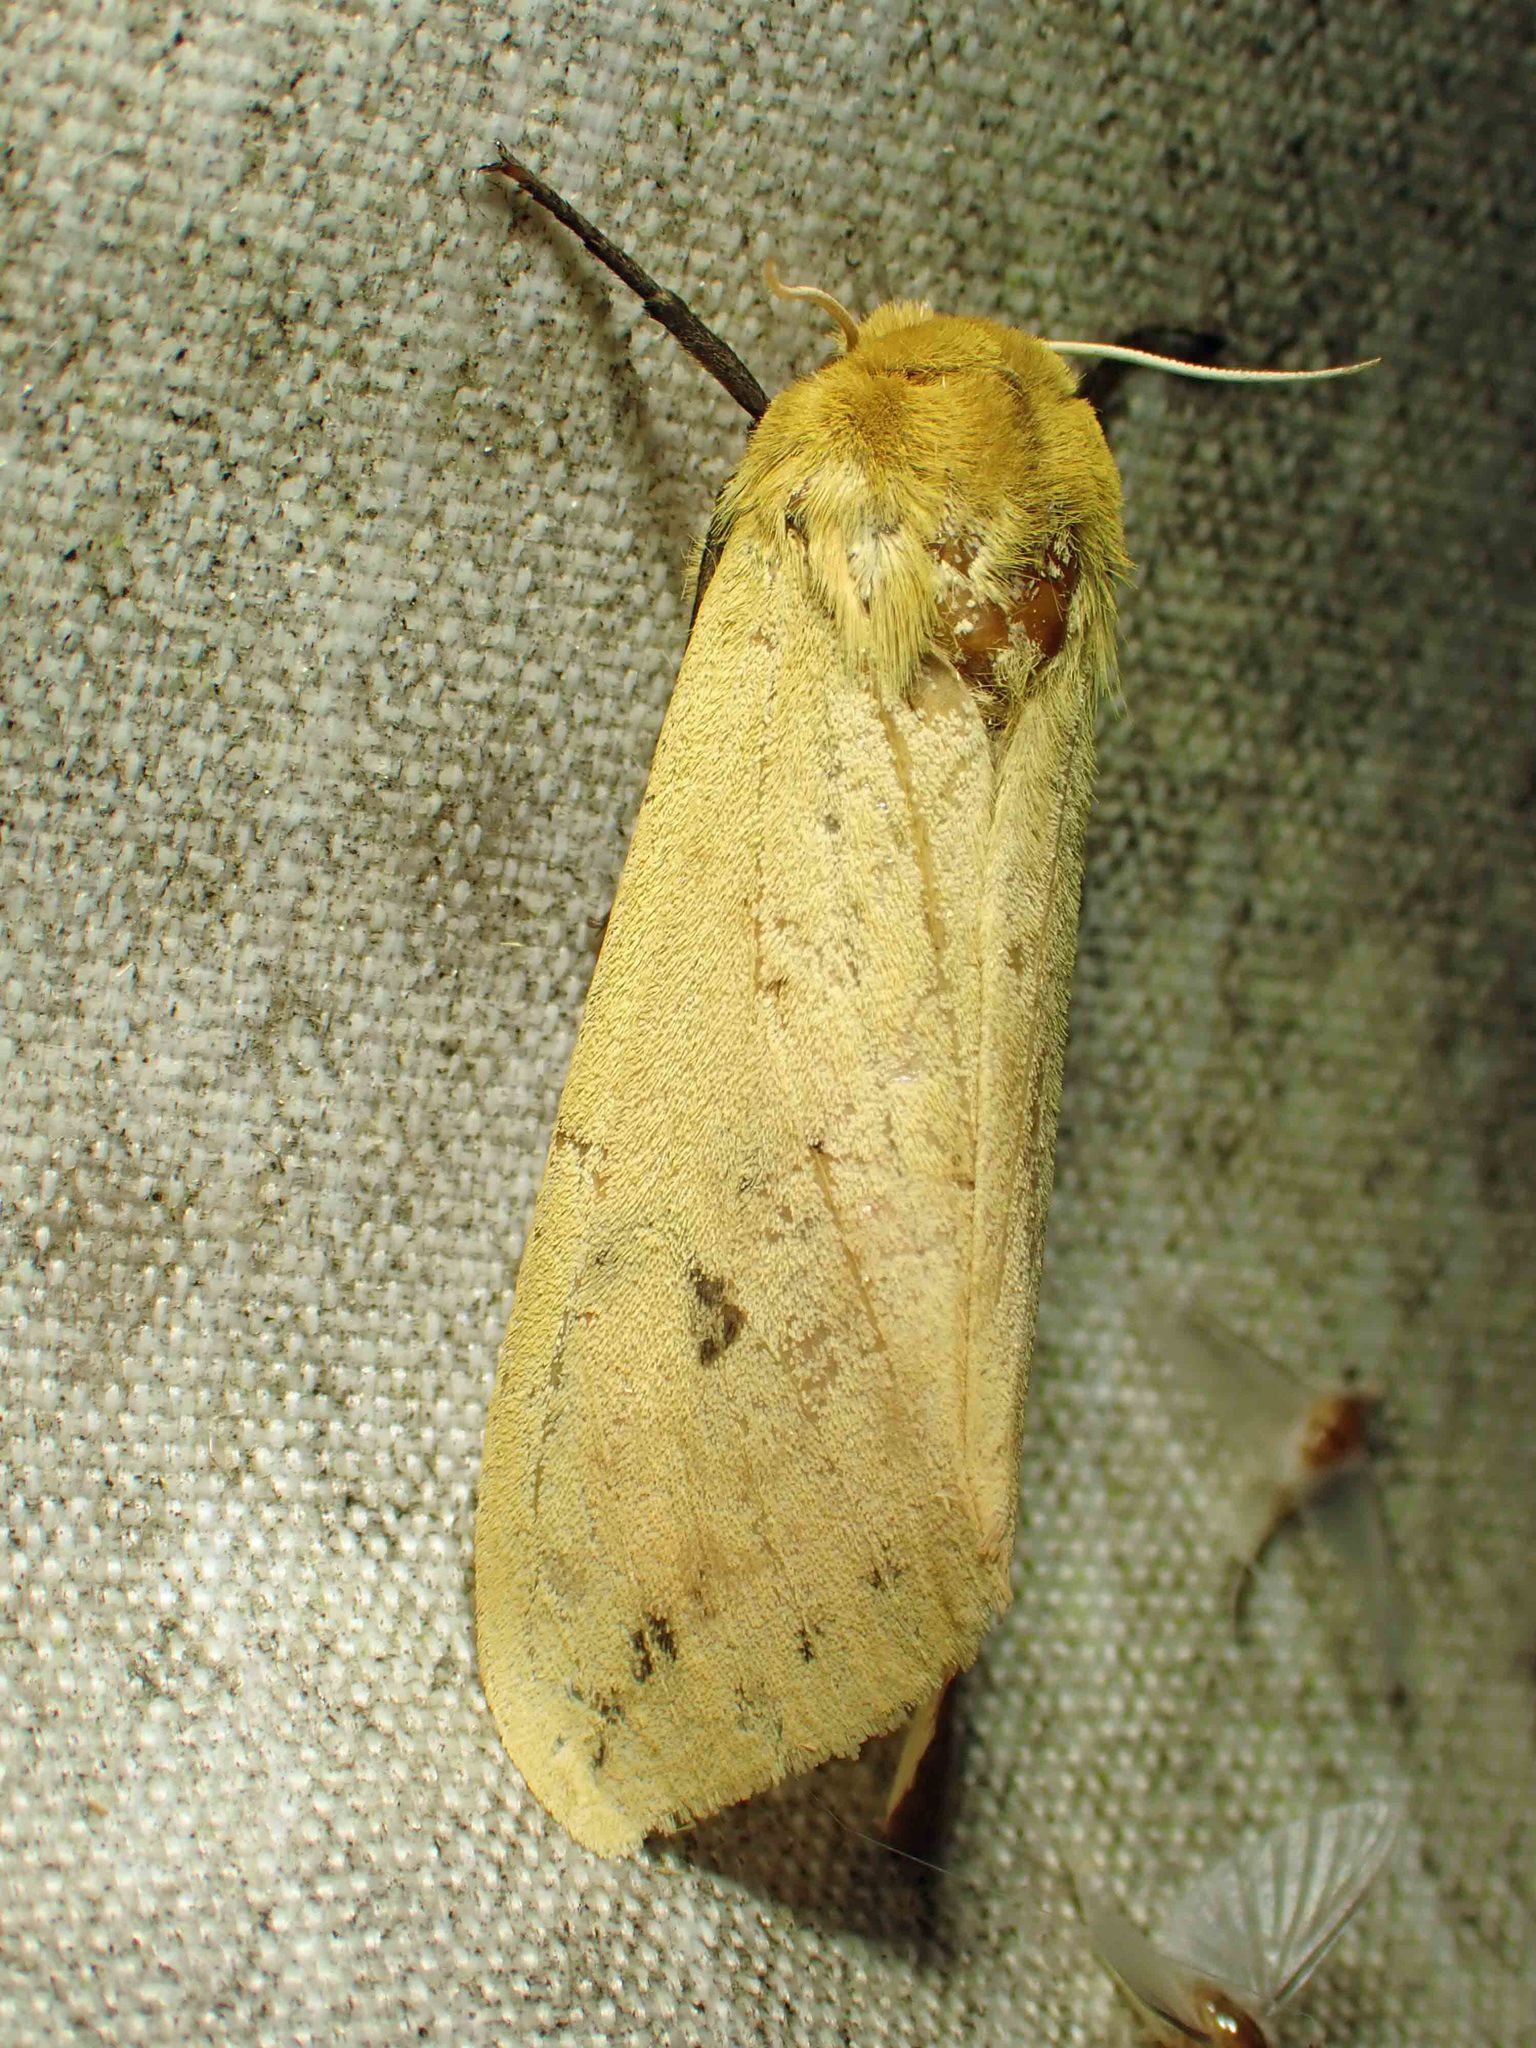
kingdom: Animalia
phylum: Arthropoda
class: Insecta
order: Lepidoptera
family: Erebidae
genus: Pyrrharctia
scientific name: Pyrrharctia isabella
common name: Isabella tiger moth
